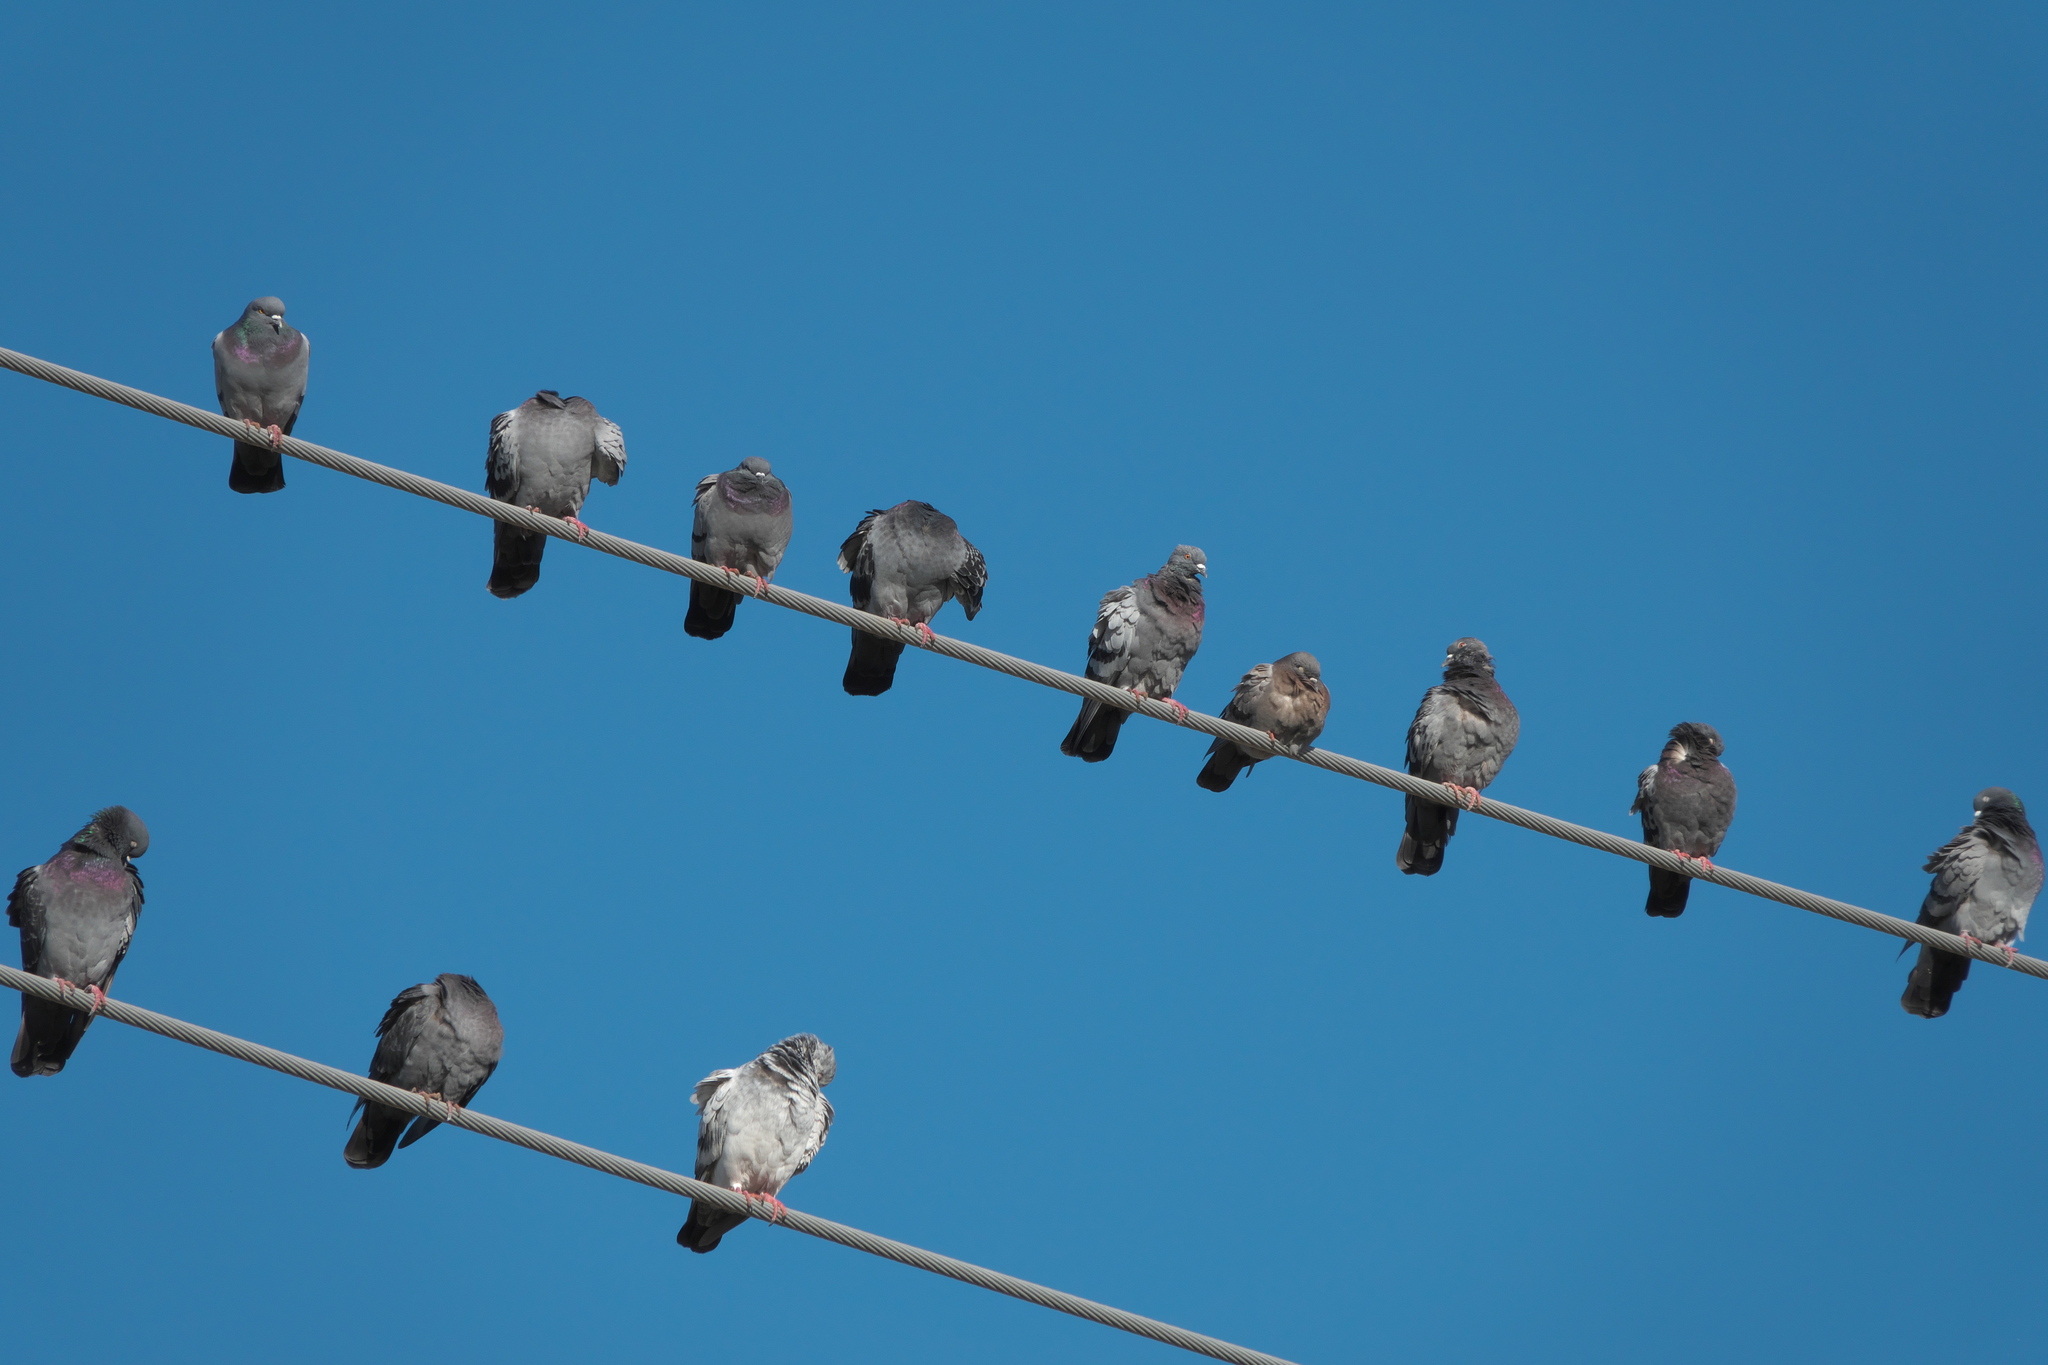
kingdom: Animalia
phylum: Chordata
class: Aves
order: Columbiformes
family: Columbidae
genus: Columba
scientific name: Columba livia
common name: Rock pigeon
